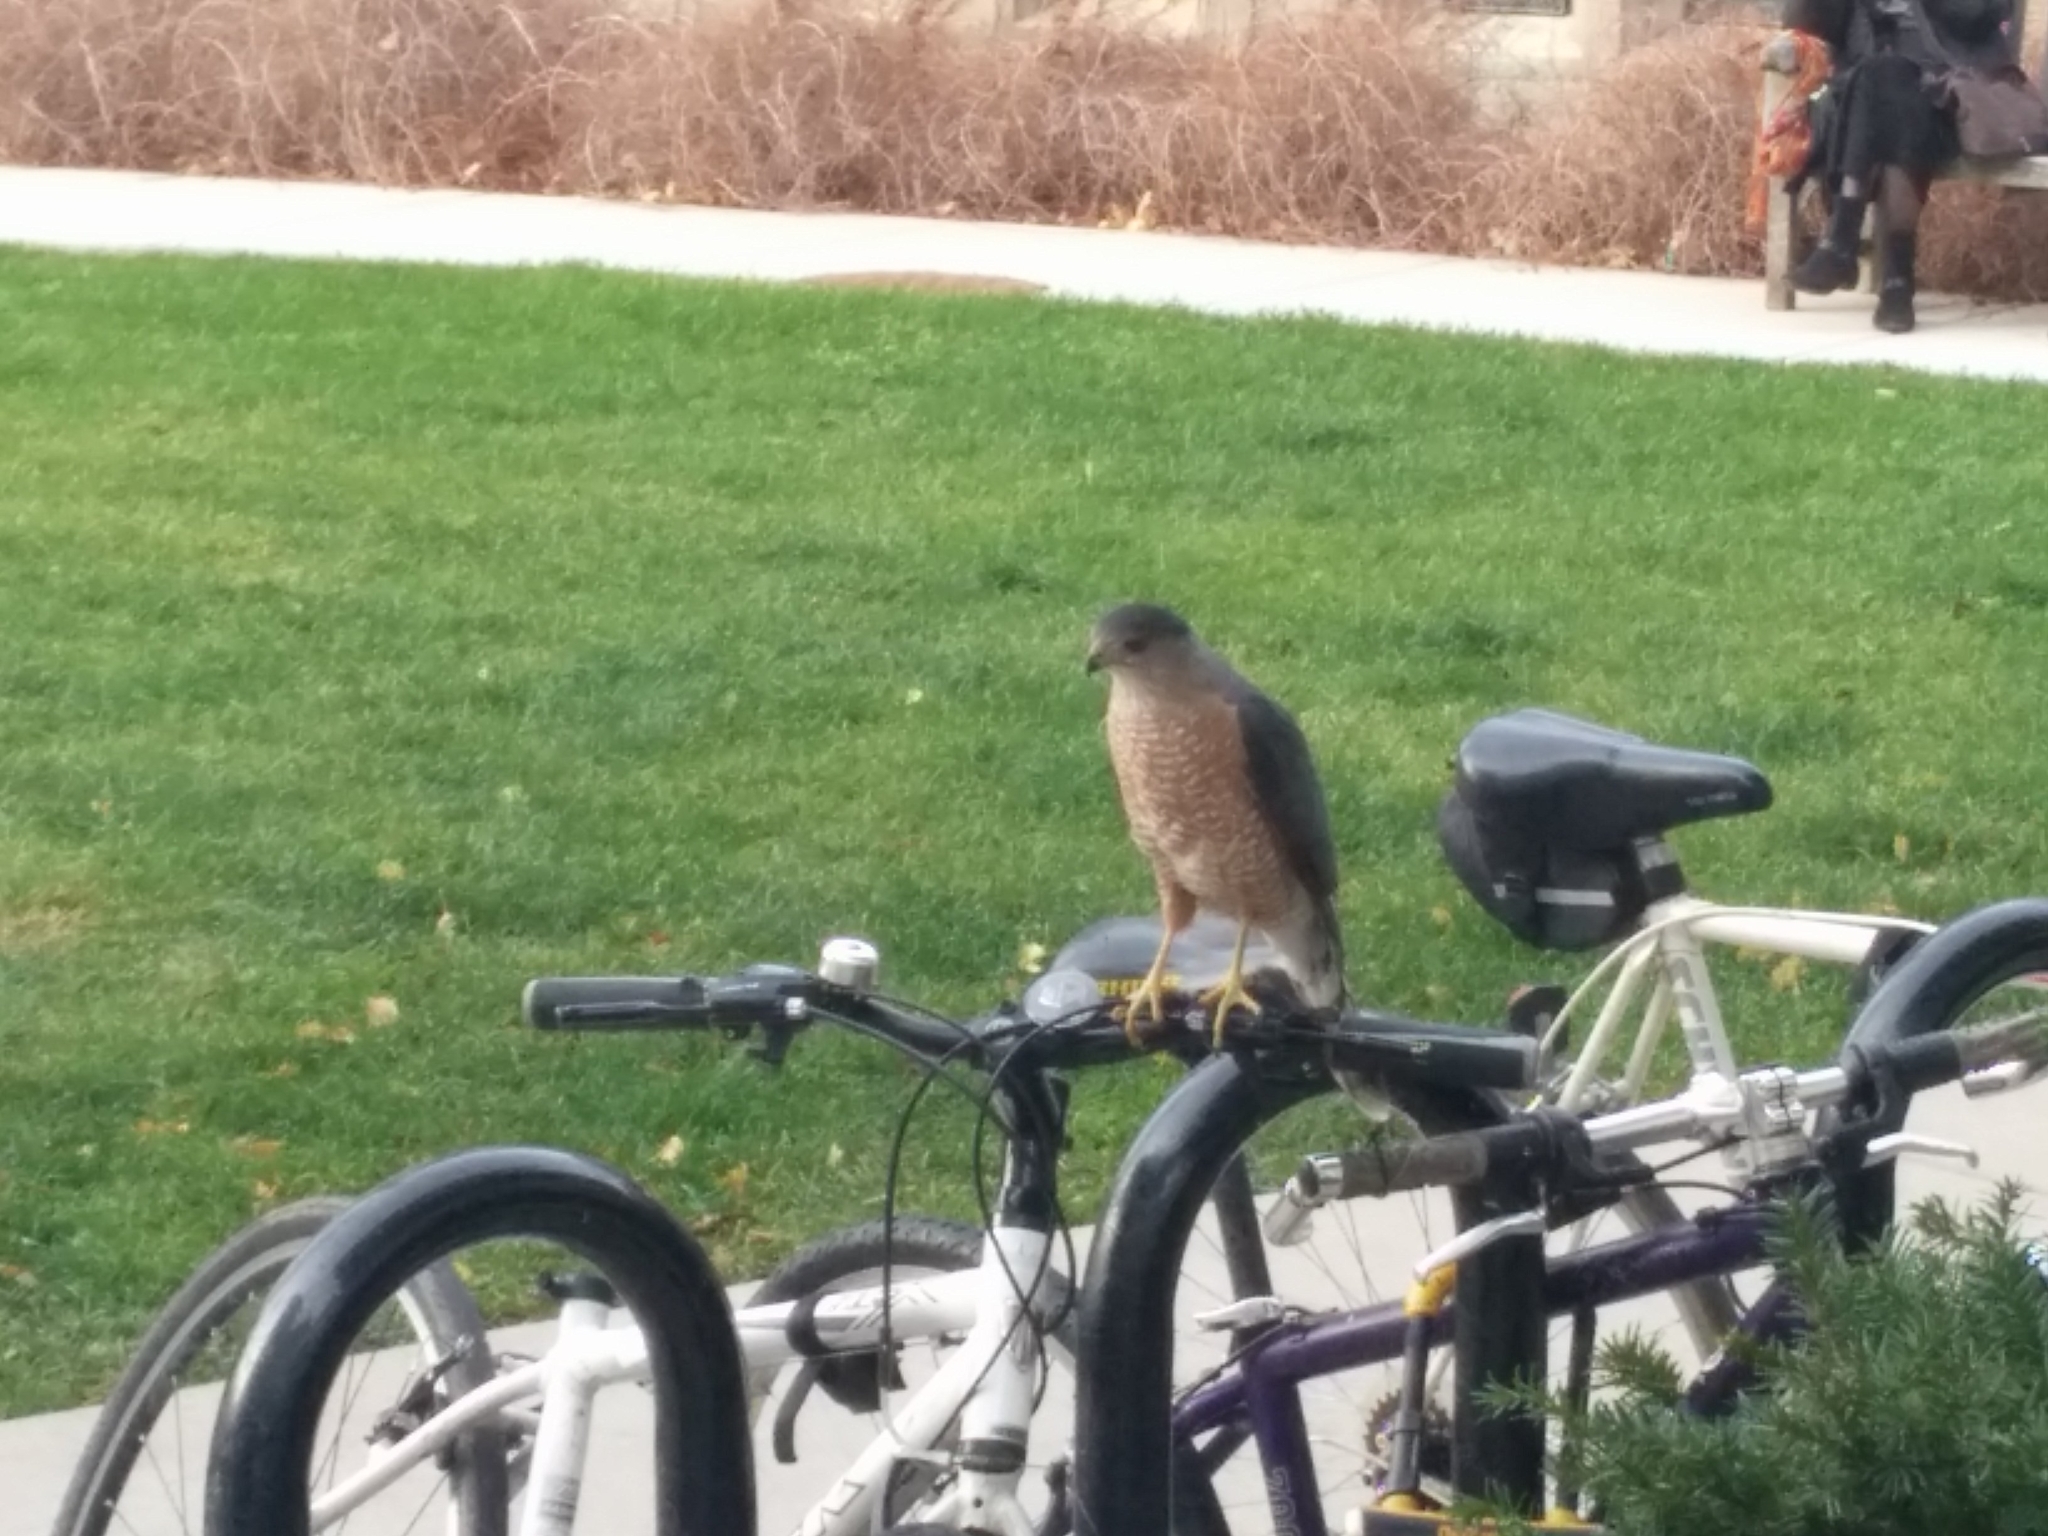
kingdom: Animalia
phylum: Chordata
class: Aves
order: Accipitriformes
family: Accipitridae
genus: Accipiter
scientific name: Accipiter cooperii
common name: Cooper's hawk
